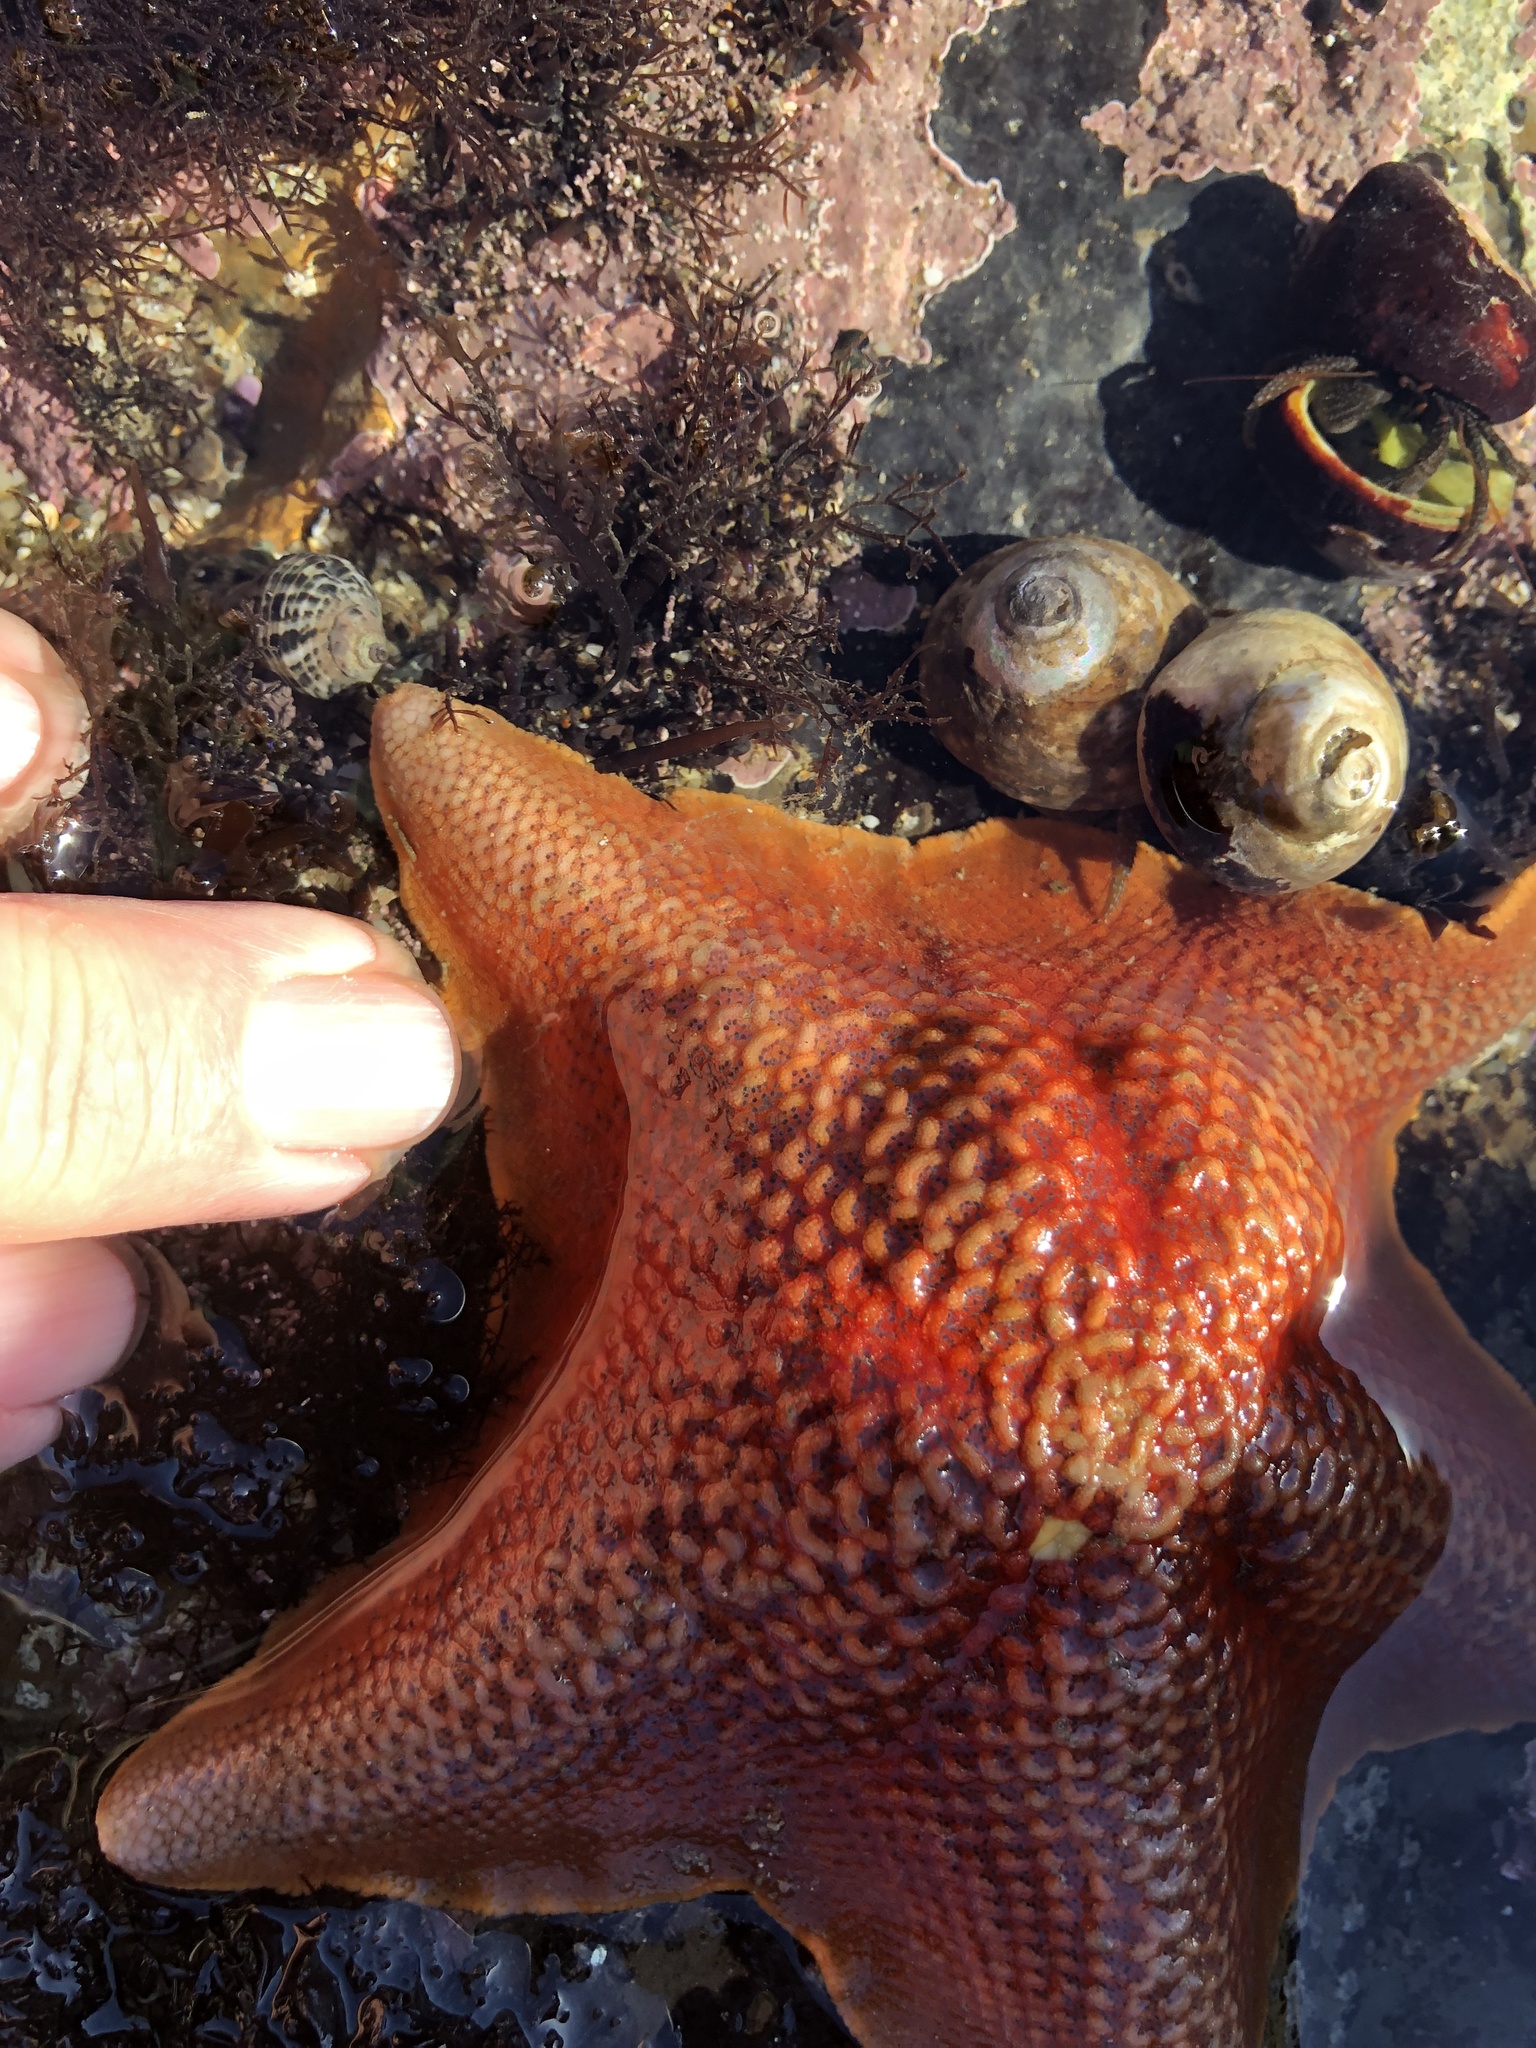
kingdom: Animalia
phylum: Echinodermata
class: Asteroidea
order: Valvatida
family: Asterinidae
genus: Patiria
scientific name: Patiria miniata
